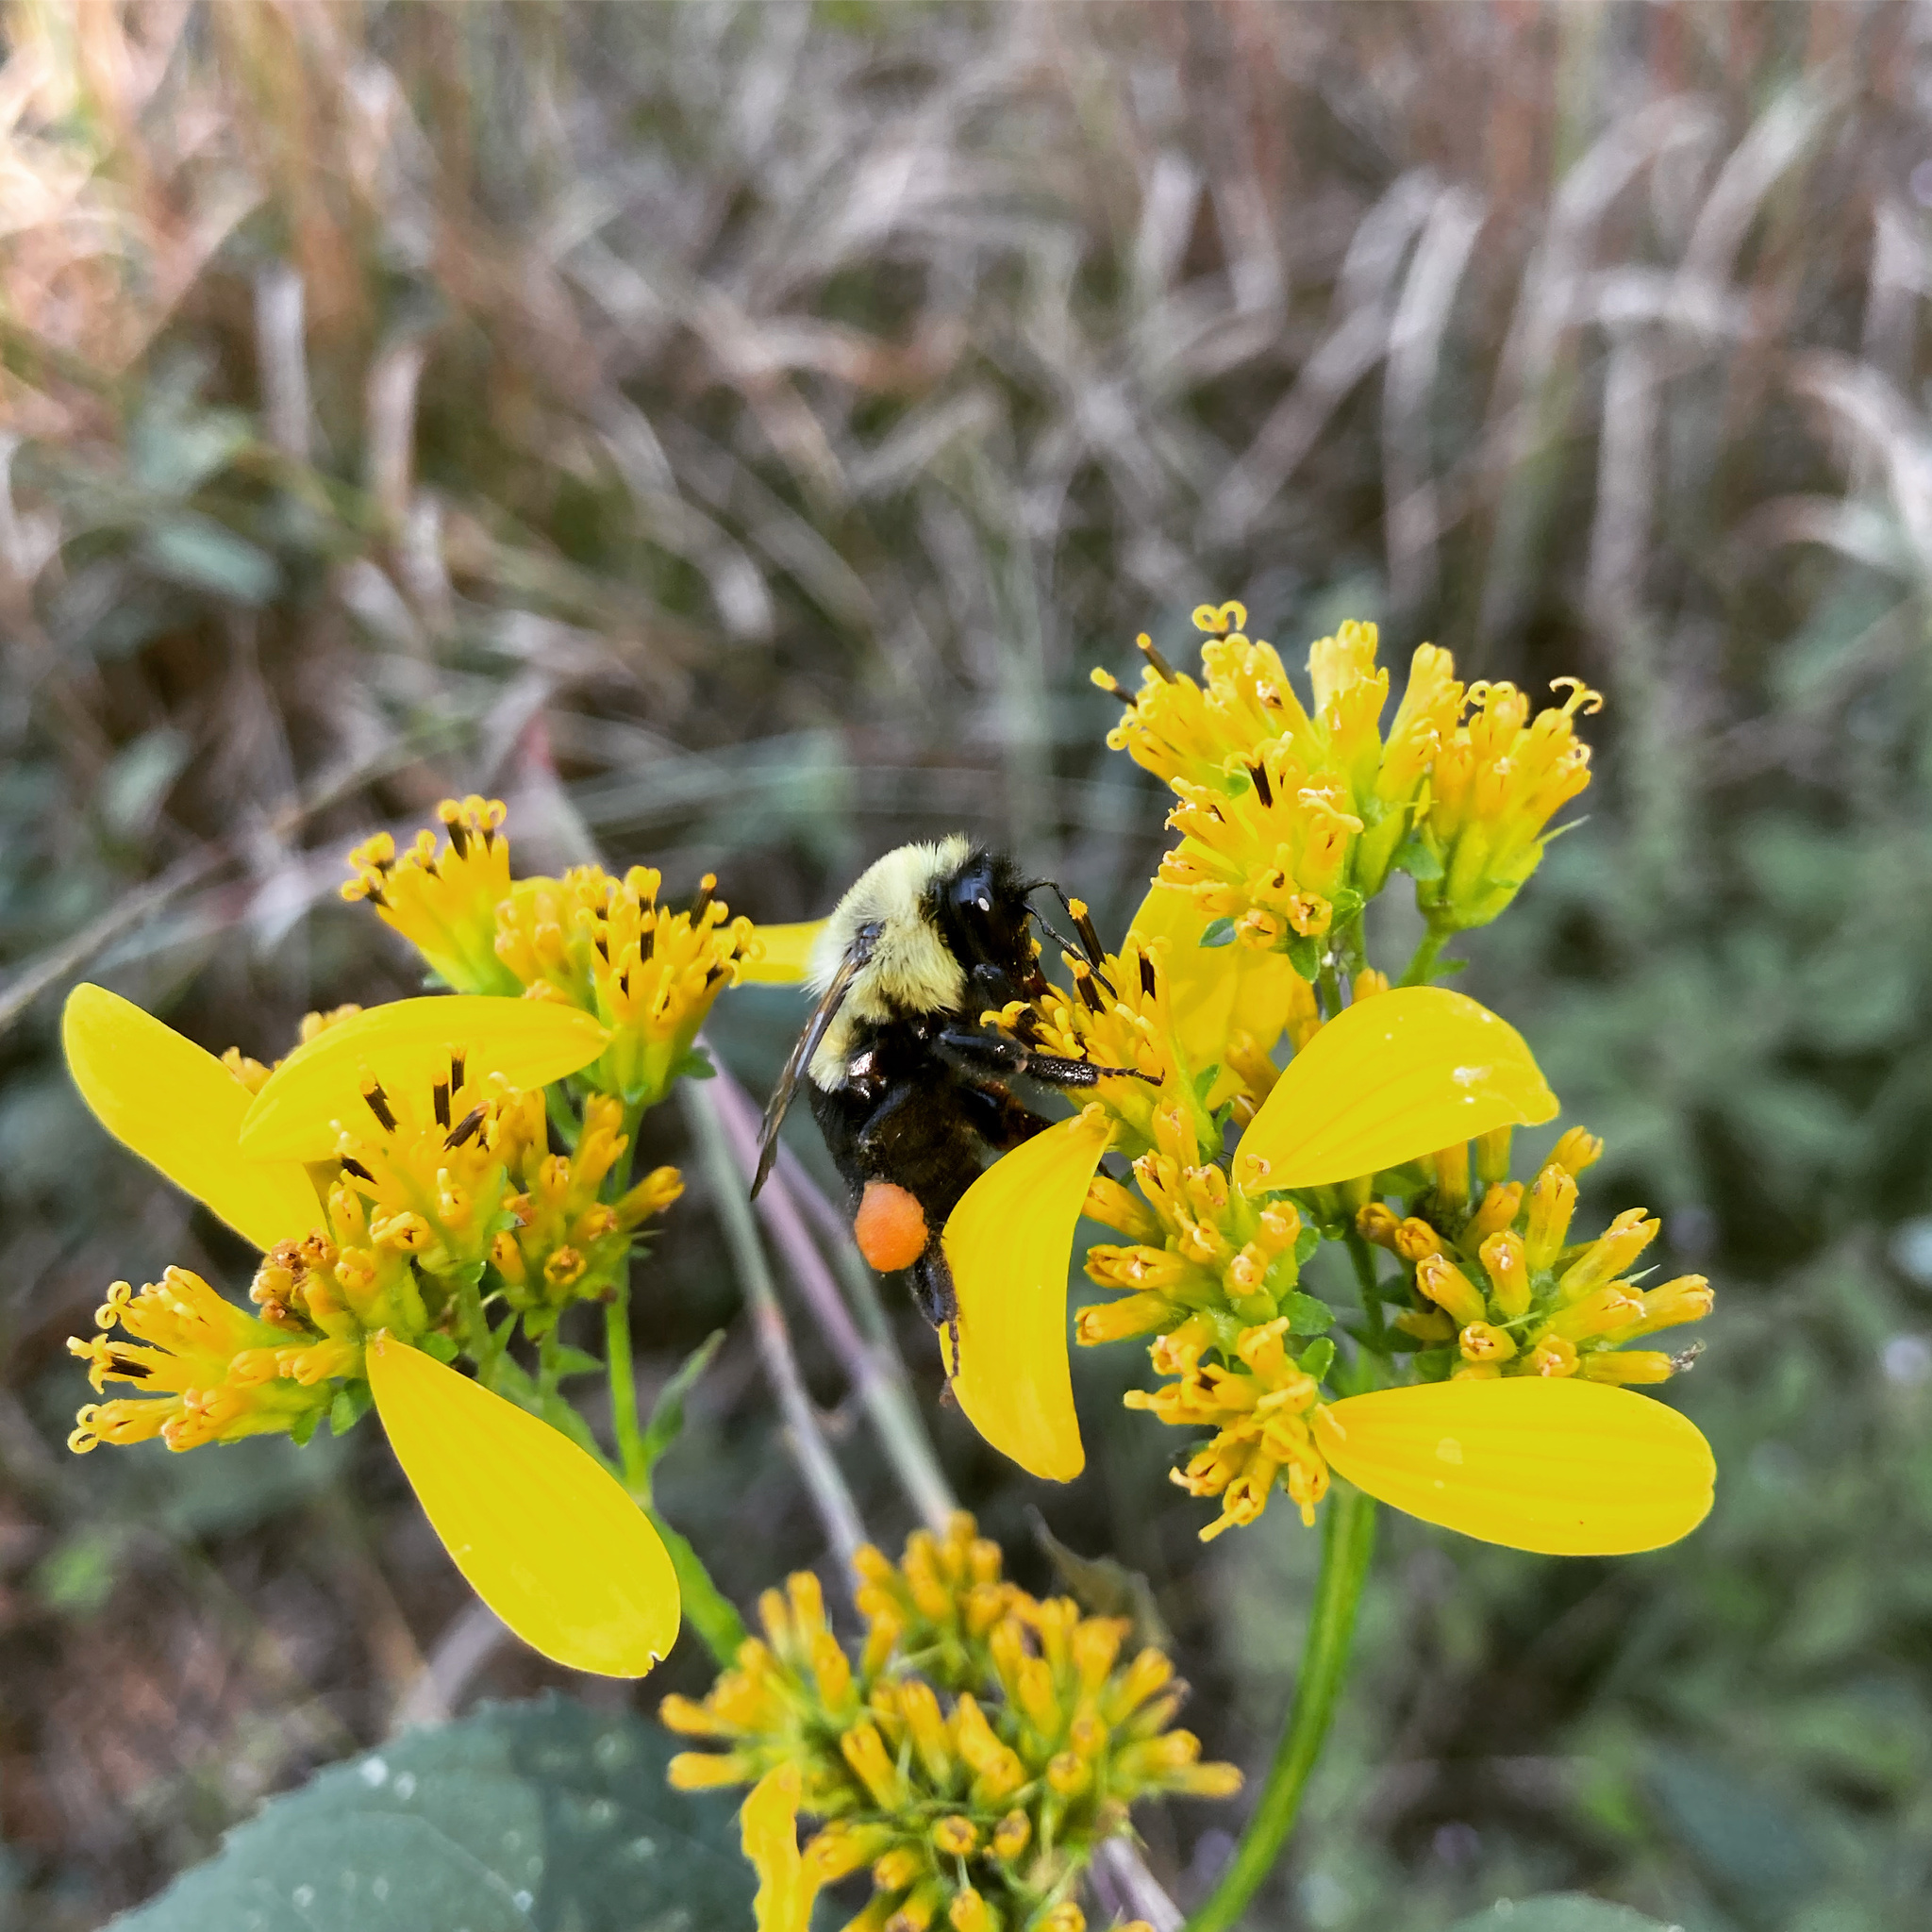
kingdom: Animalia
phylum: Arthropoda
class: Insecta
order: Hymenoptera
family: Apidae
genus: Bombus
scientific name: Bombus impatiens
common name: Common eastern bumble bee
